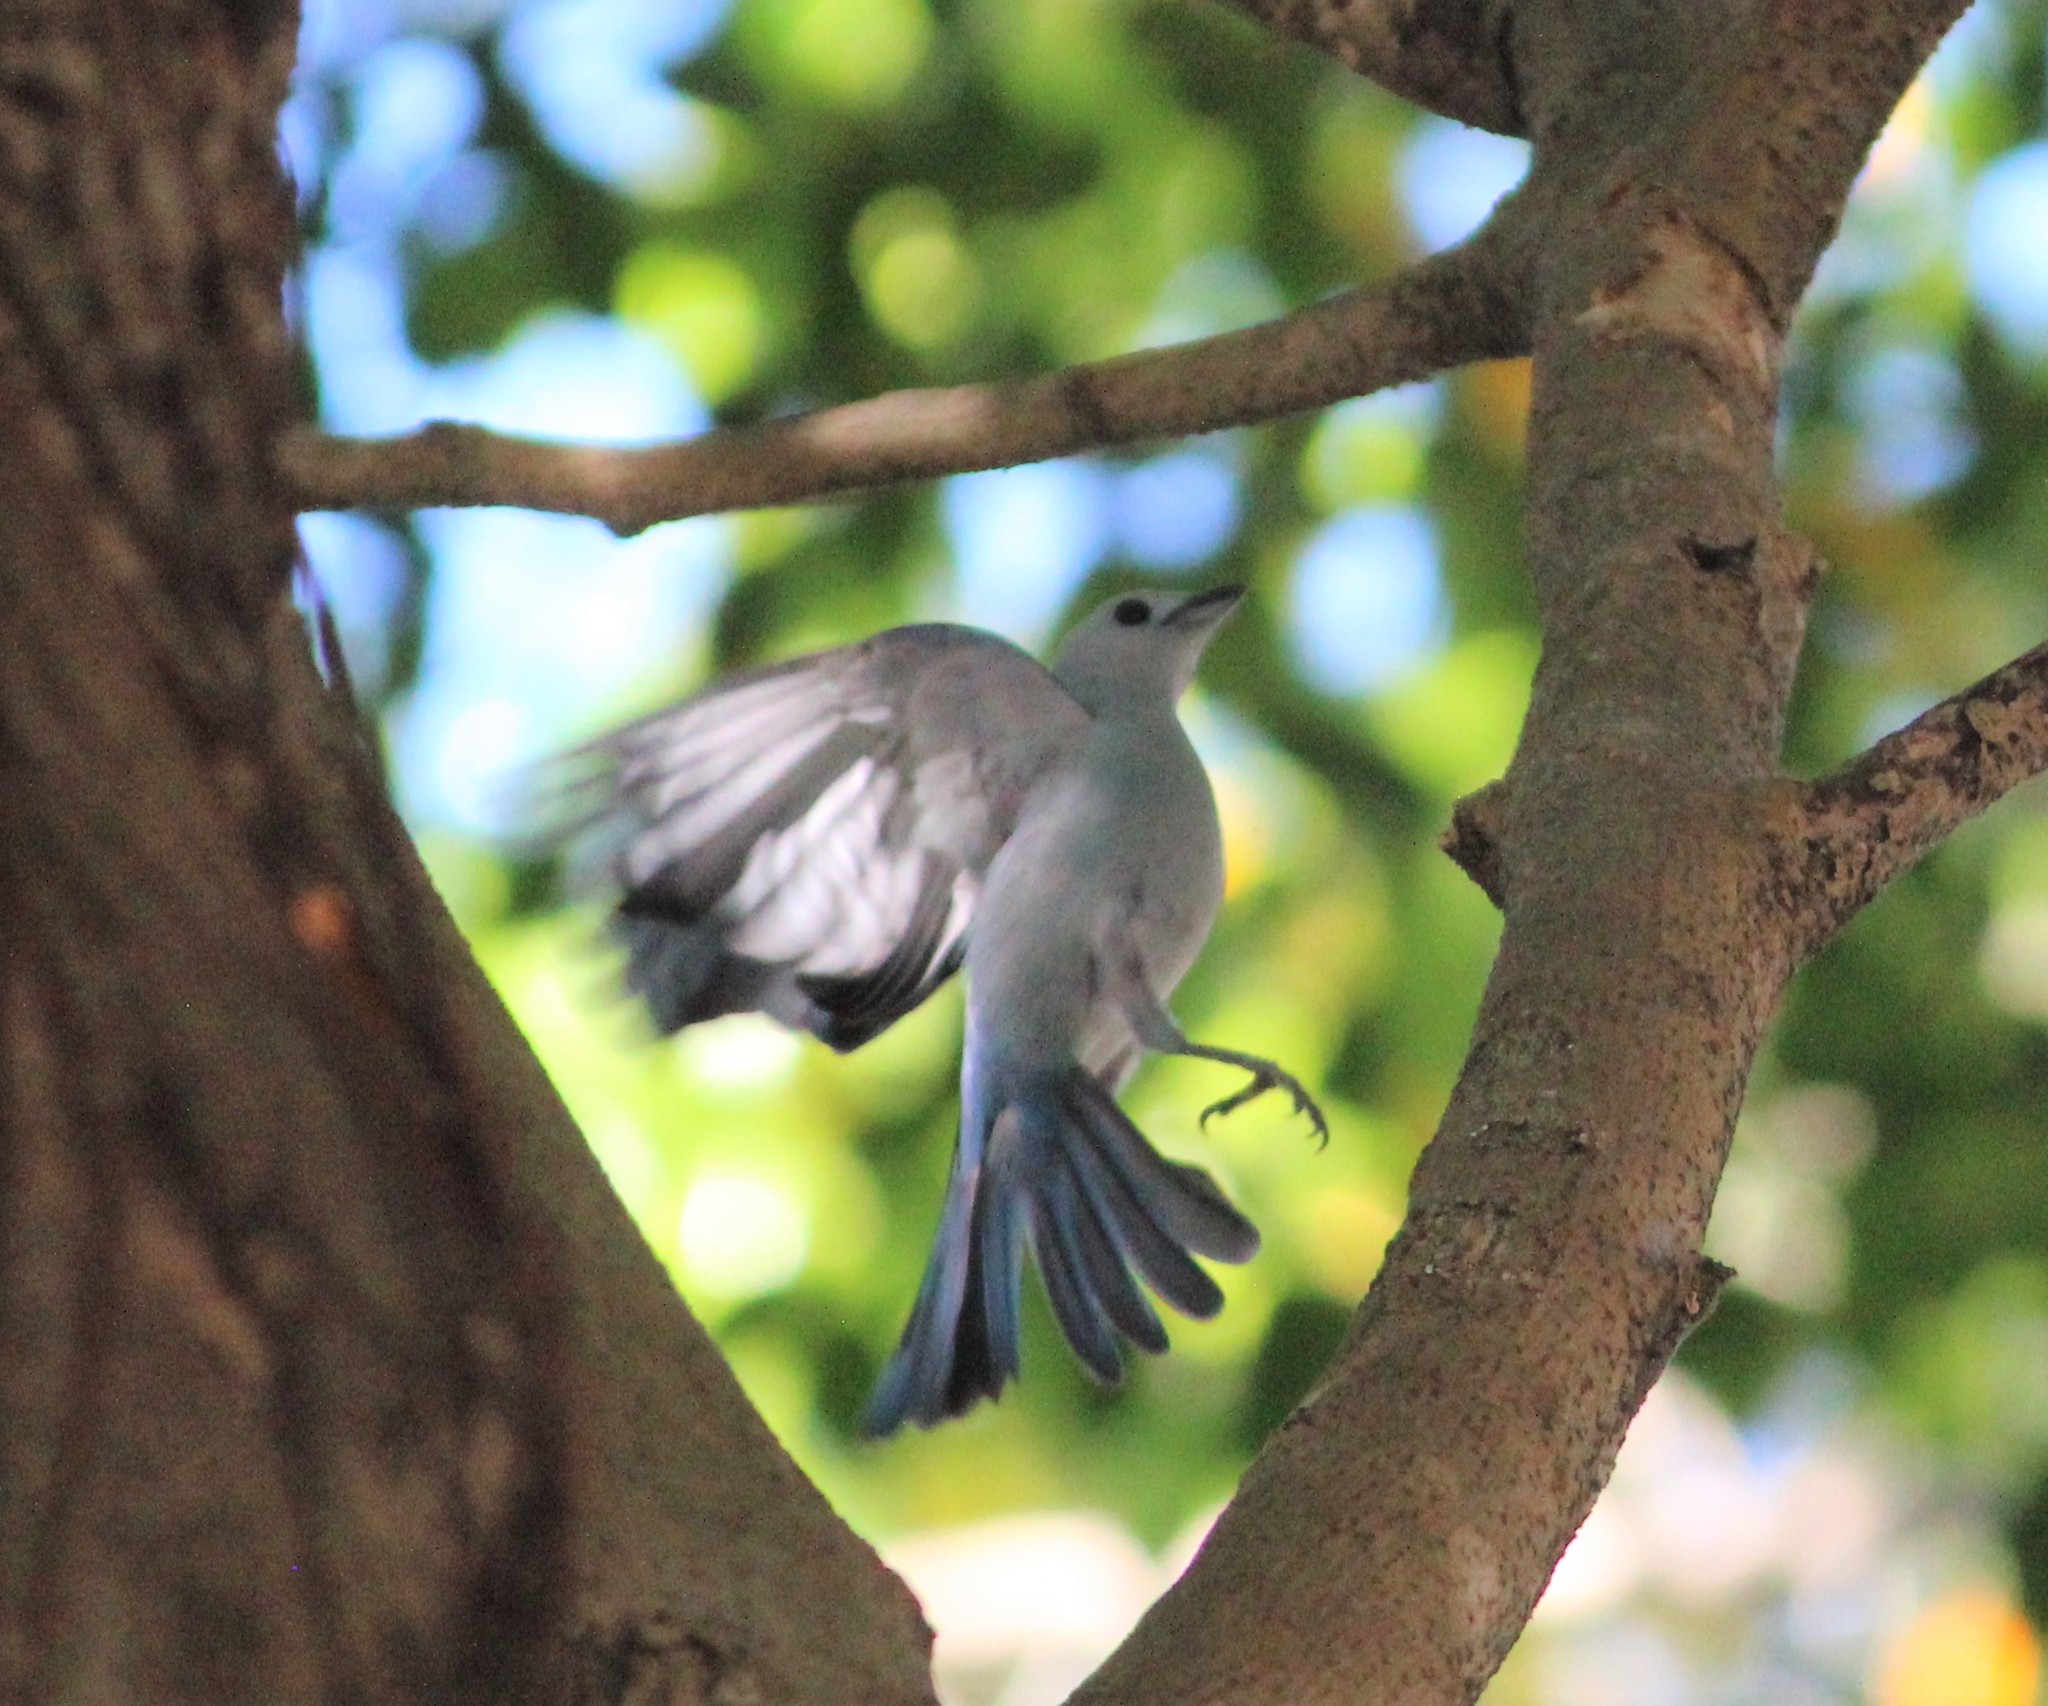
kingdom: Animalia
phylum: Chordata
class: Aves
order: Passeriformes
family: Thraupidae
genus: Thraupis
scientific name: Thraupis episcopus
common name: Blue-grey tanager
